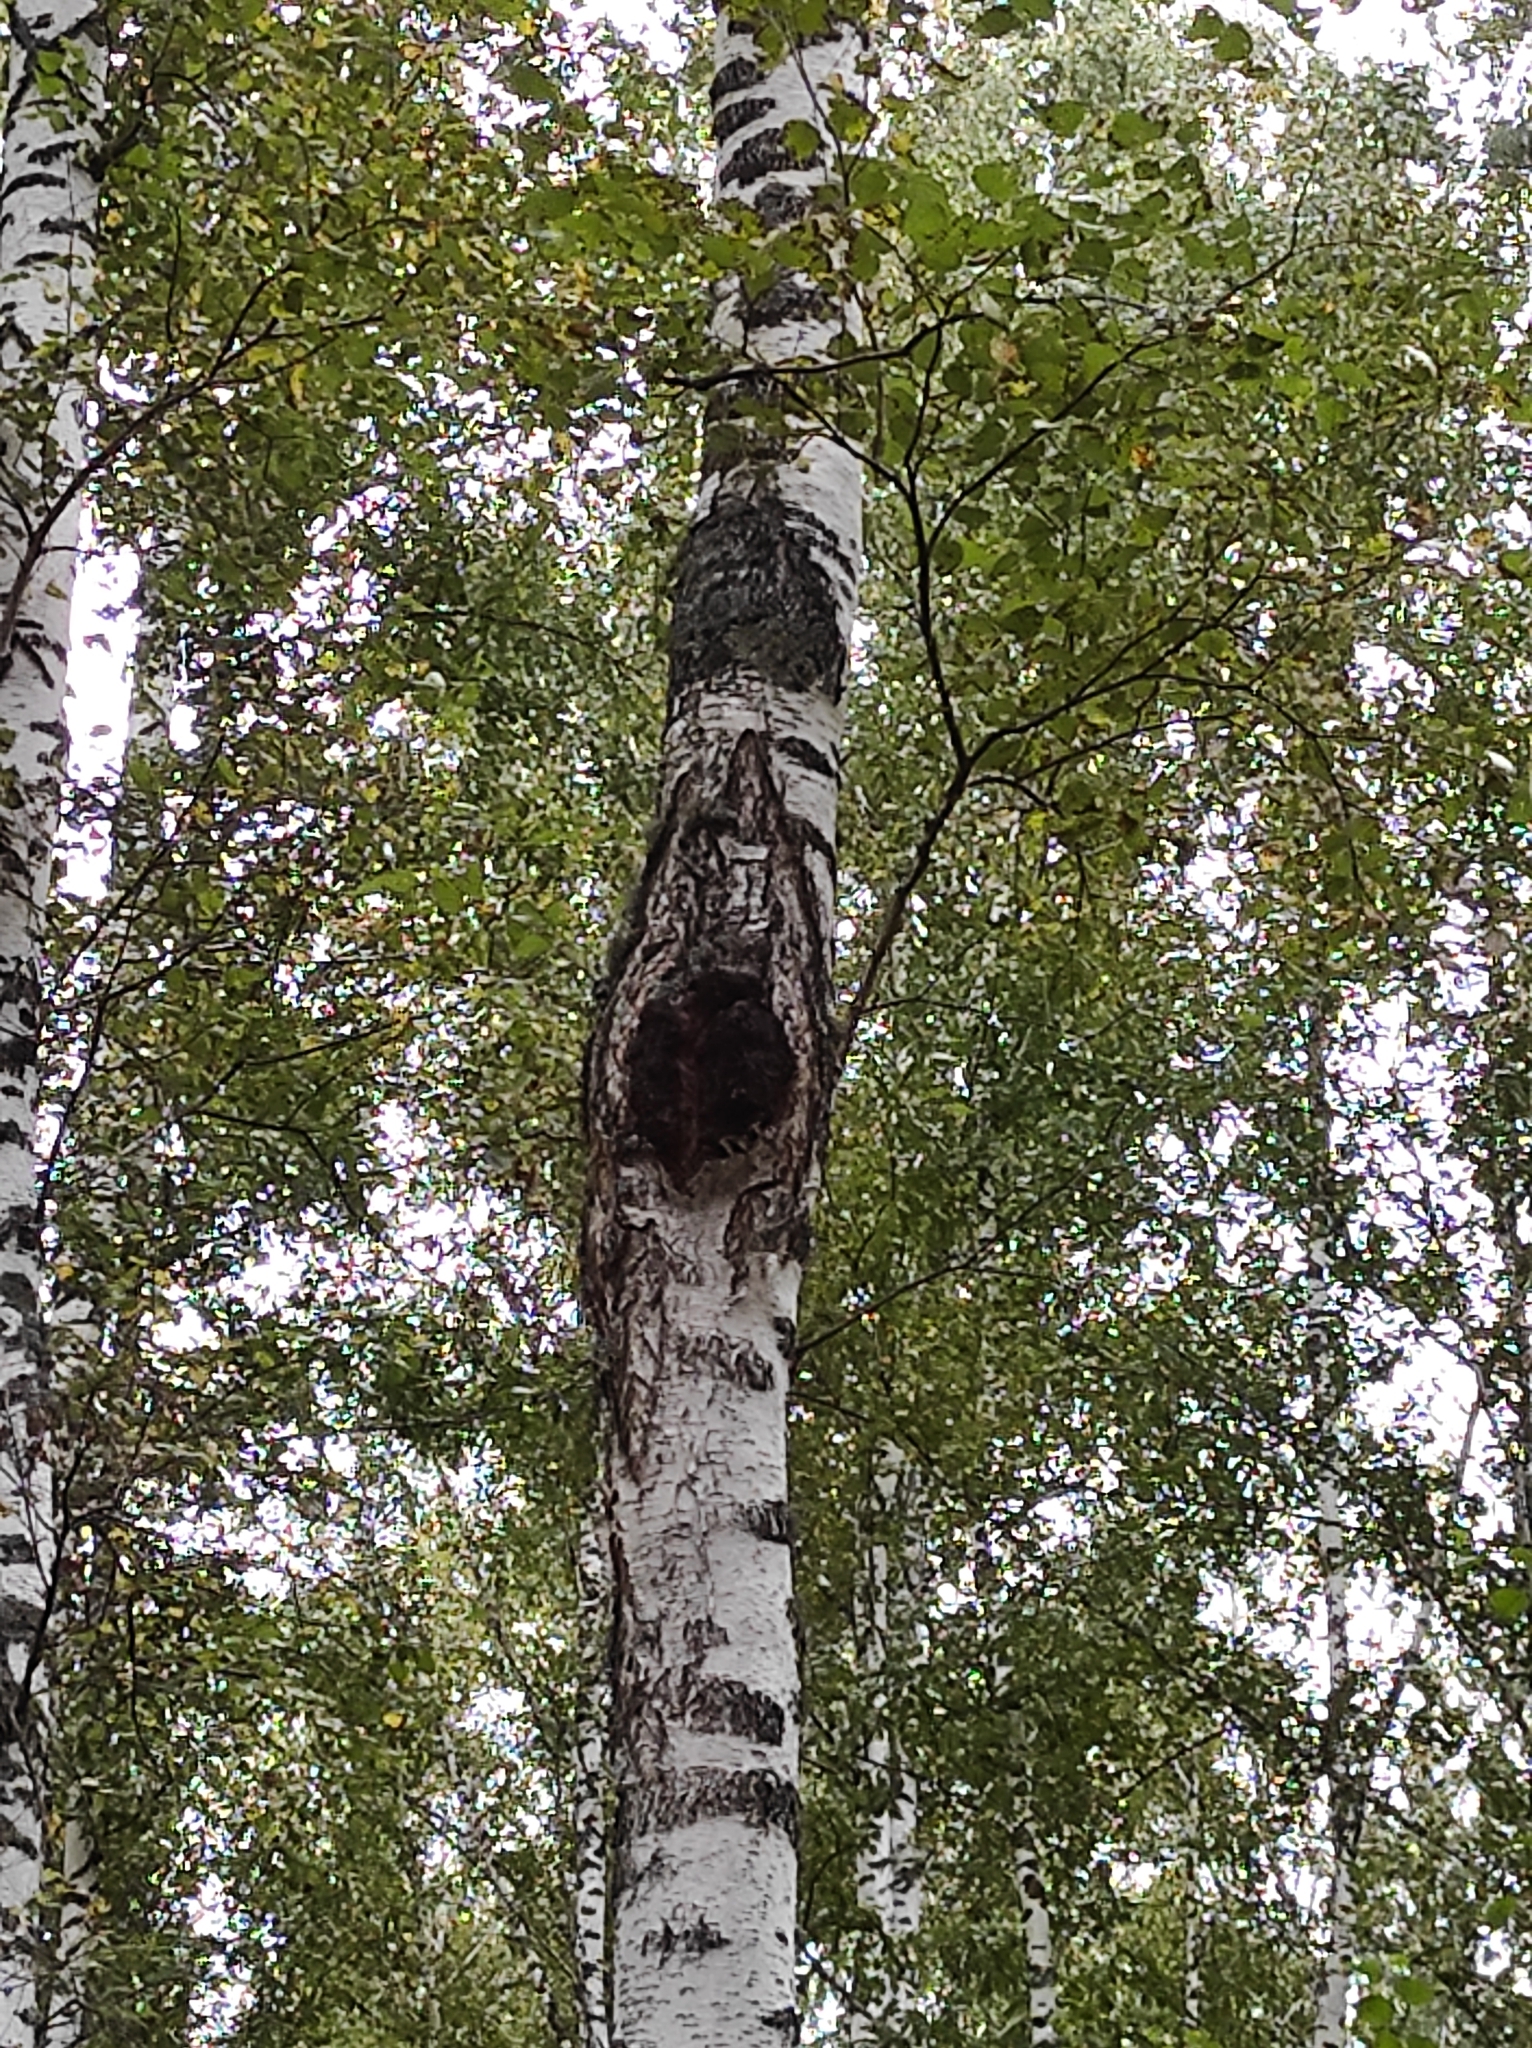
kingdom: Fungi
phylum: Basidiomycota
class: Agaricomycetes
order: Hymenochaetales
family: Hymenochaetaceae
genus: Inonotus
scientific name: Inonotus obliquus
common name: Chaga
